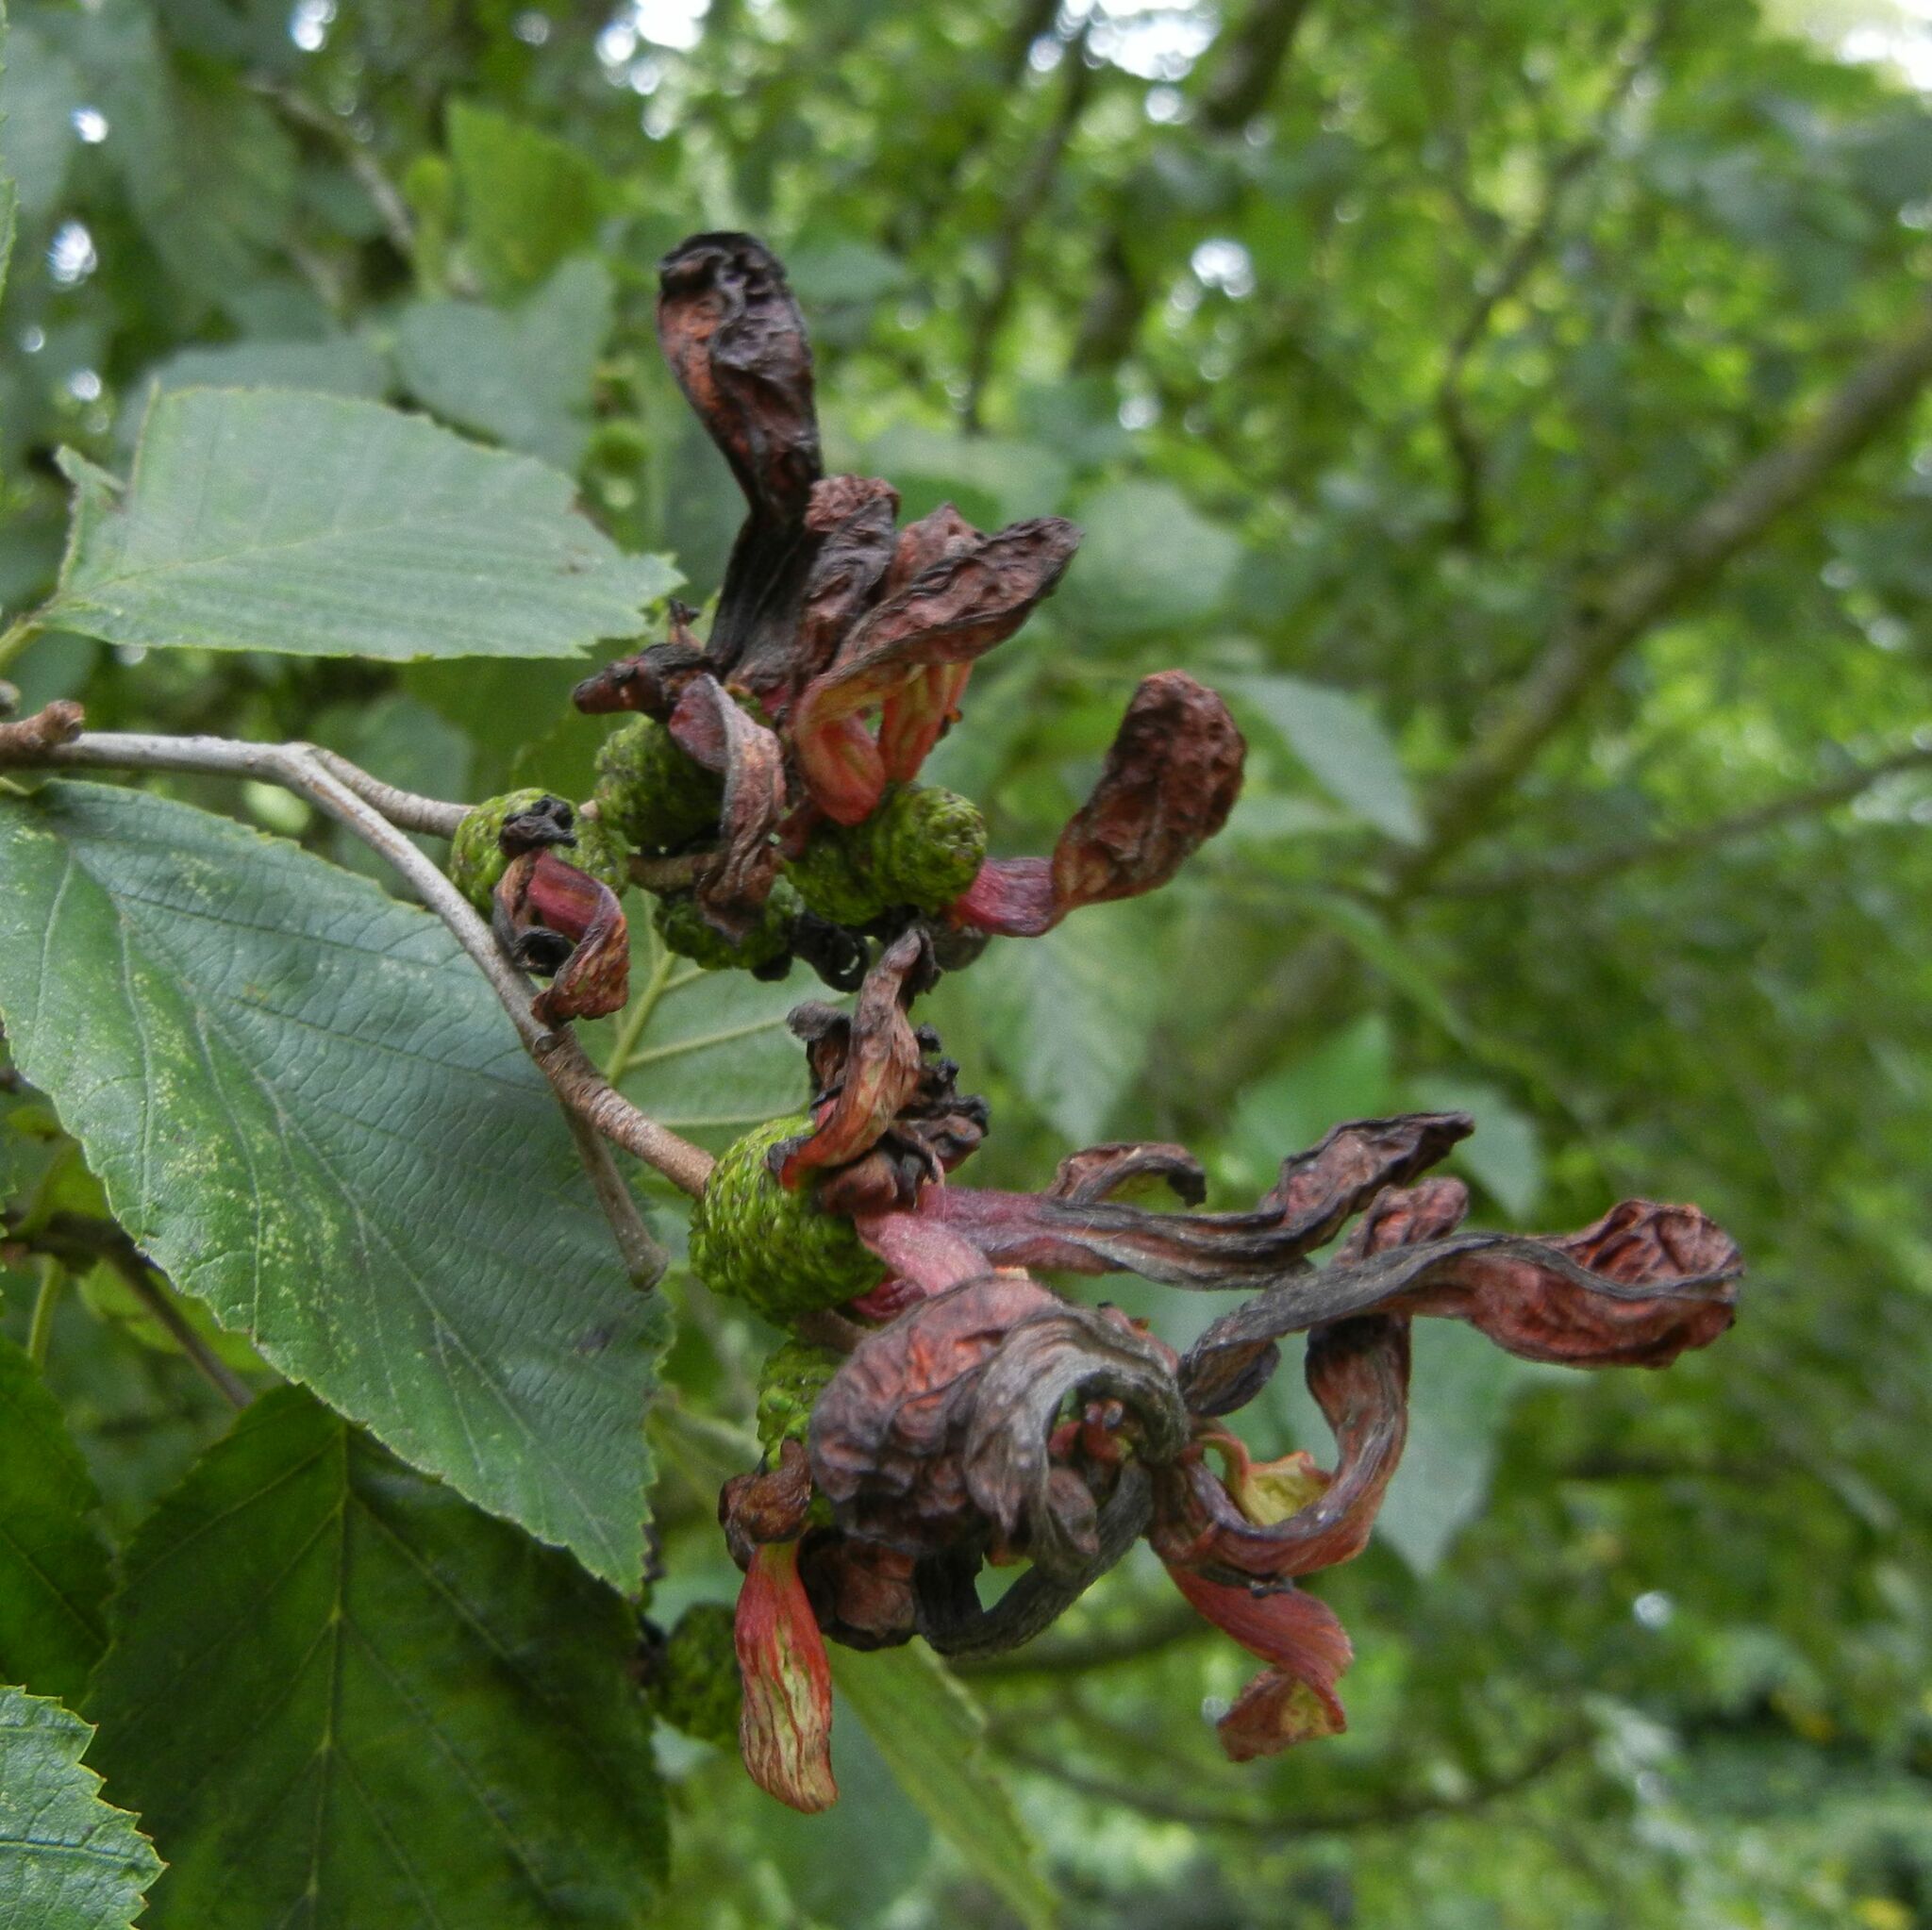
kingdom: Fungi
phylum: Ascomycota
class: Taphrinomycetes
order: Taphrinales
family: Taphrinaceae
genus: Taphrina
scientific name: Taphrina alni
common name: Alder tongue
